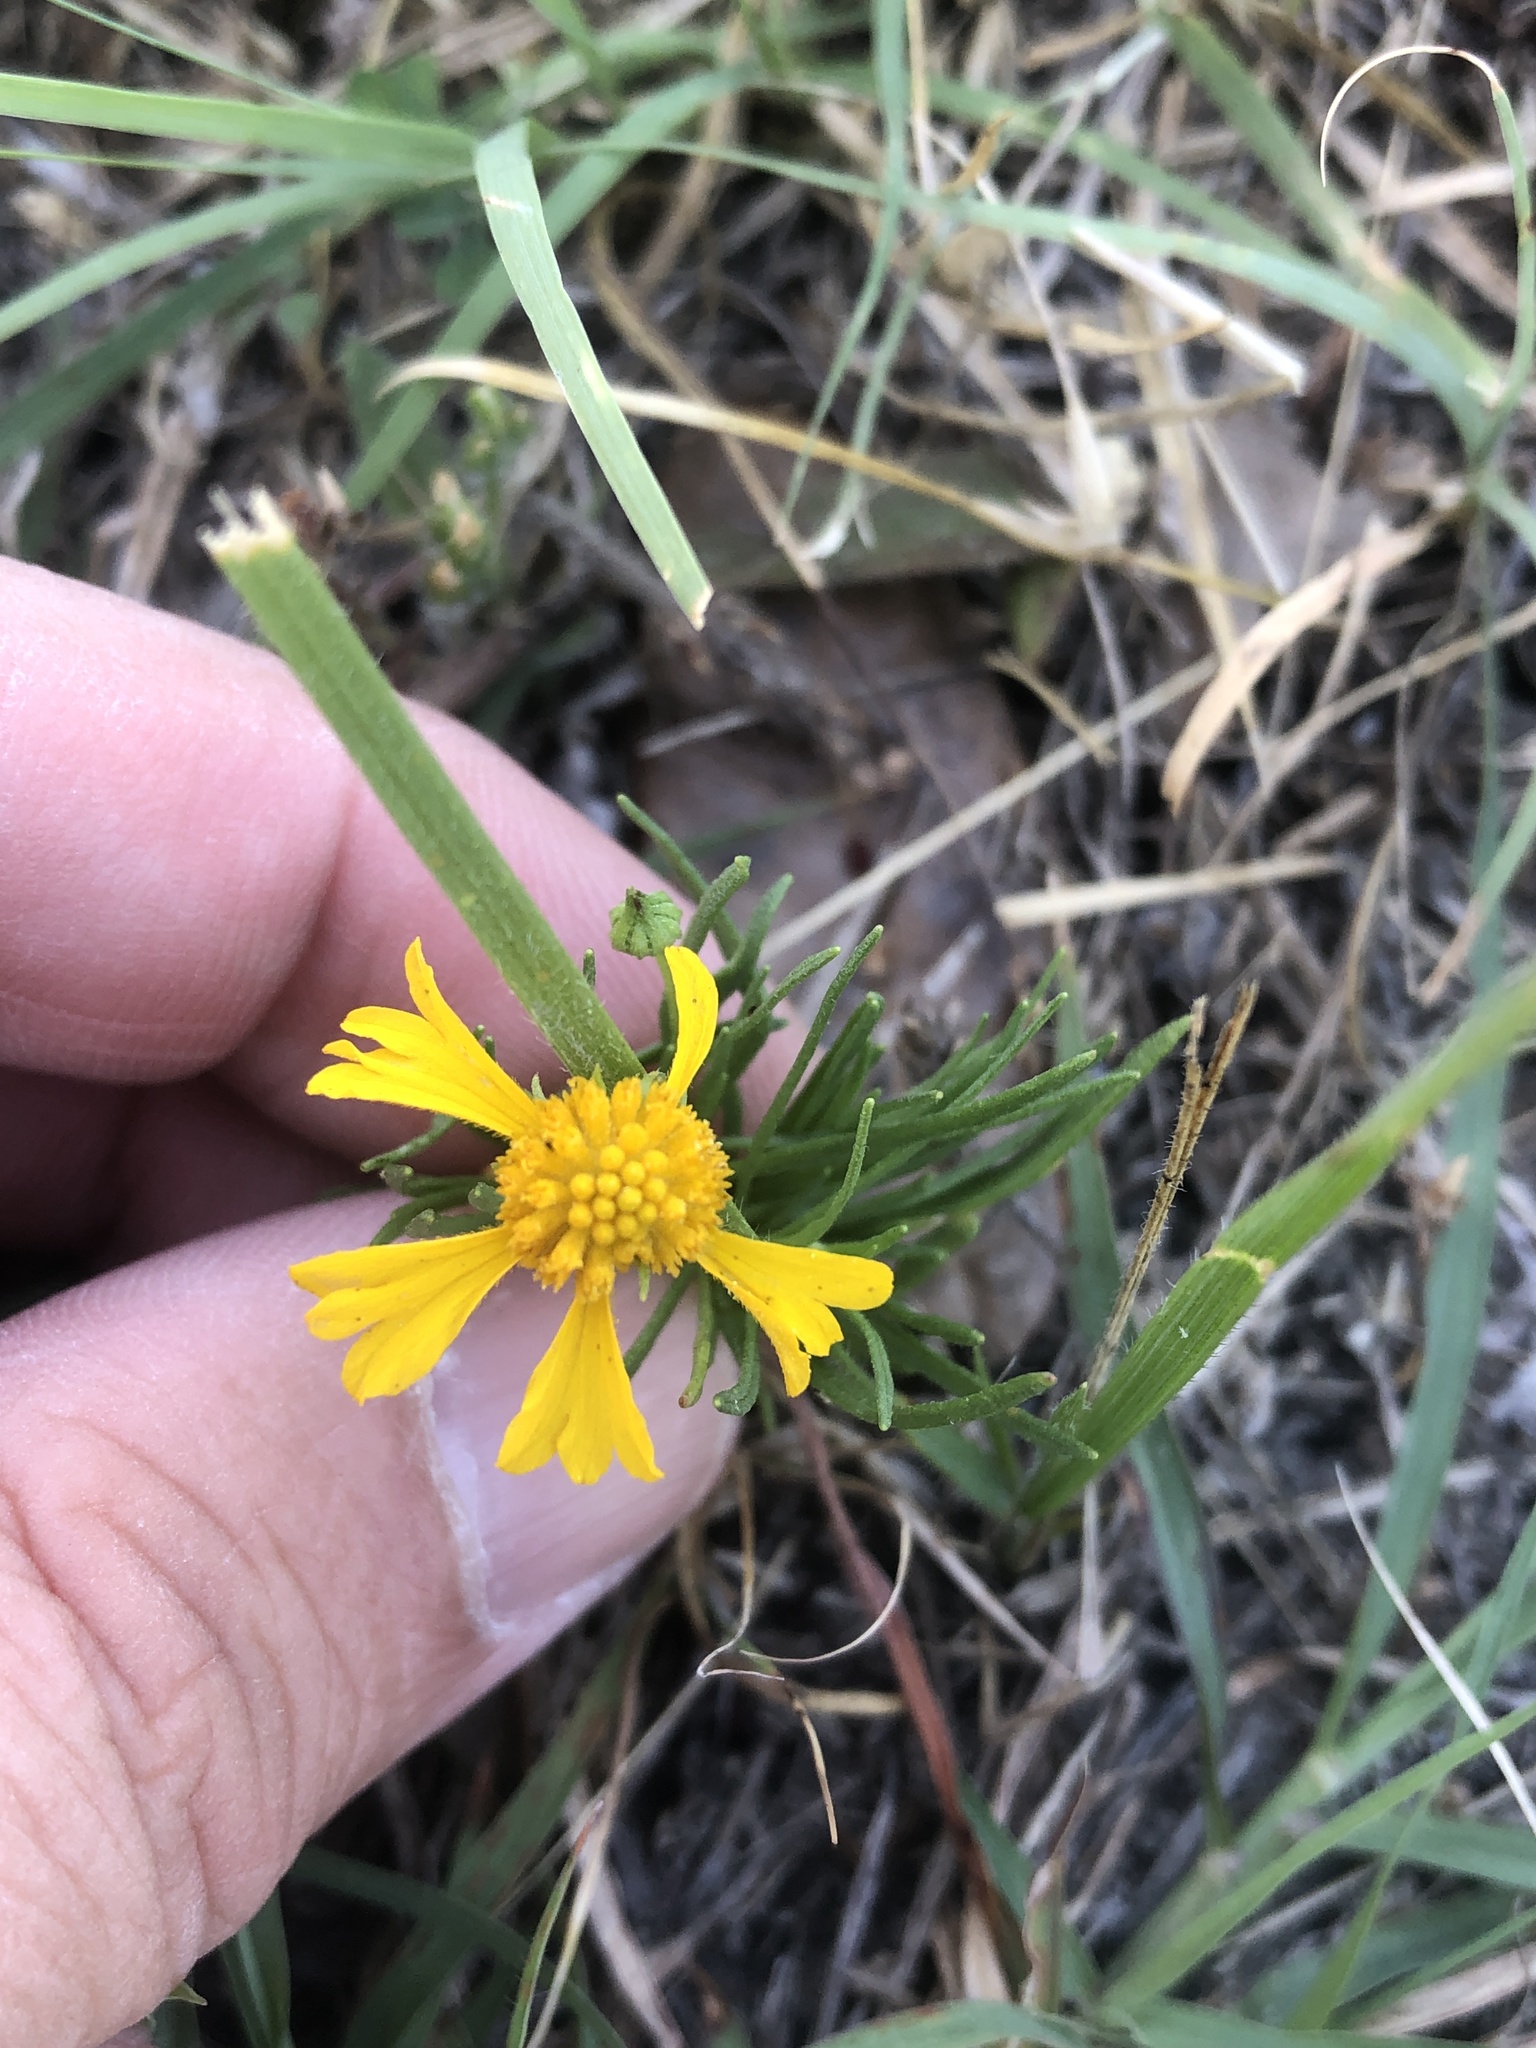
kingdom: Plantae
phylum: Tracheophyta
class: Magnoliopsida
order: Asterales
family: Asteraceae
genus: Helenium
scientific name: Helenium amarum
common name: Bitter sneezeweed
